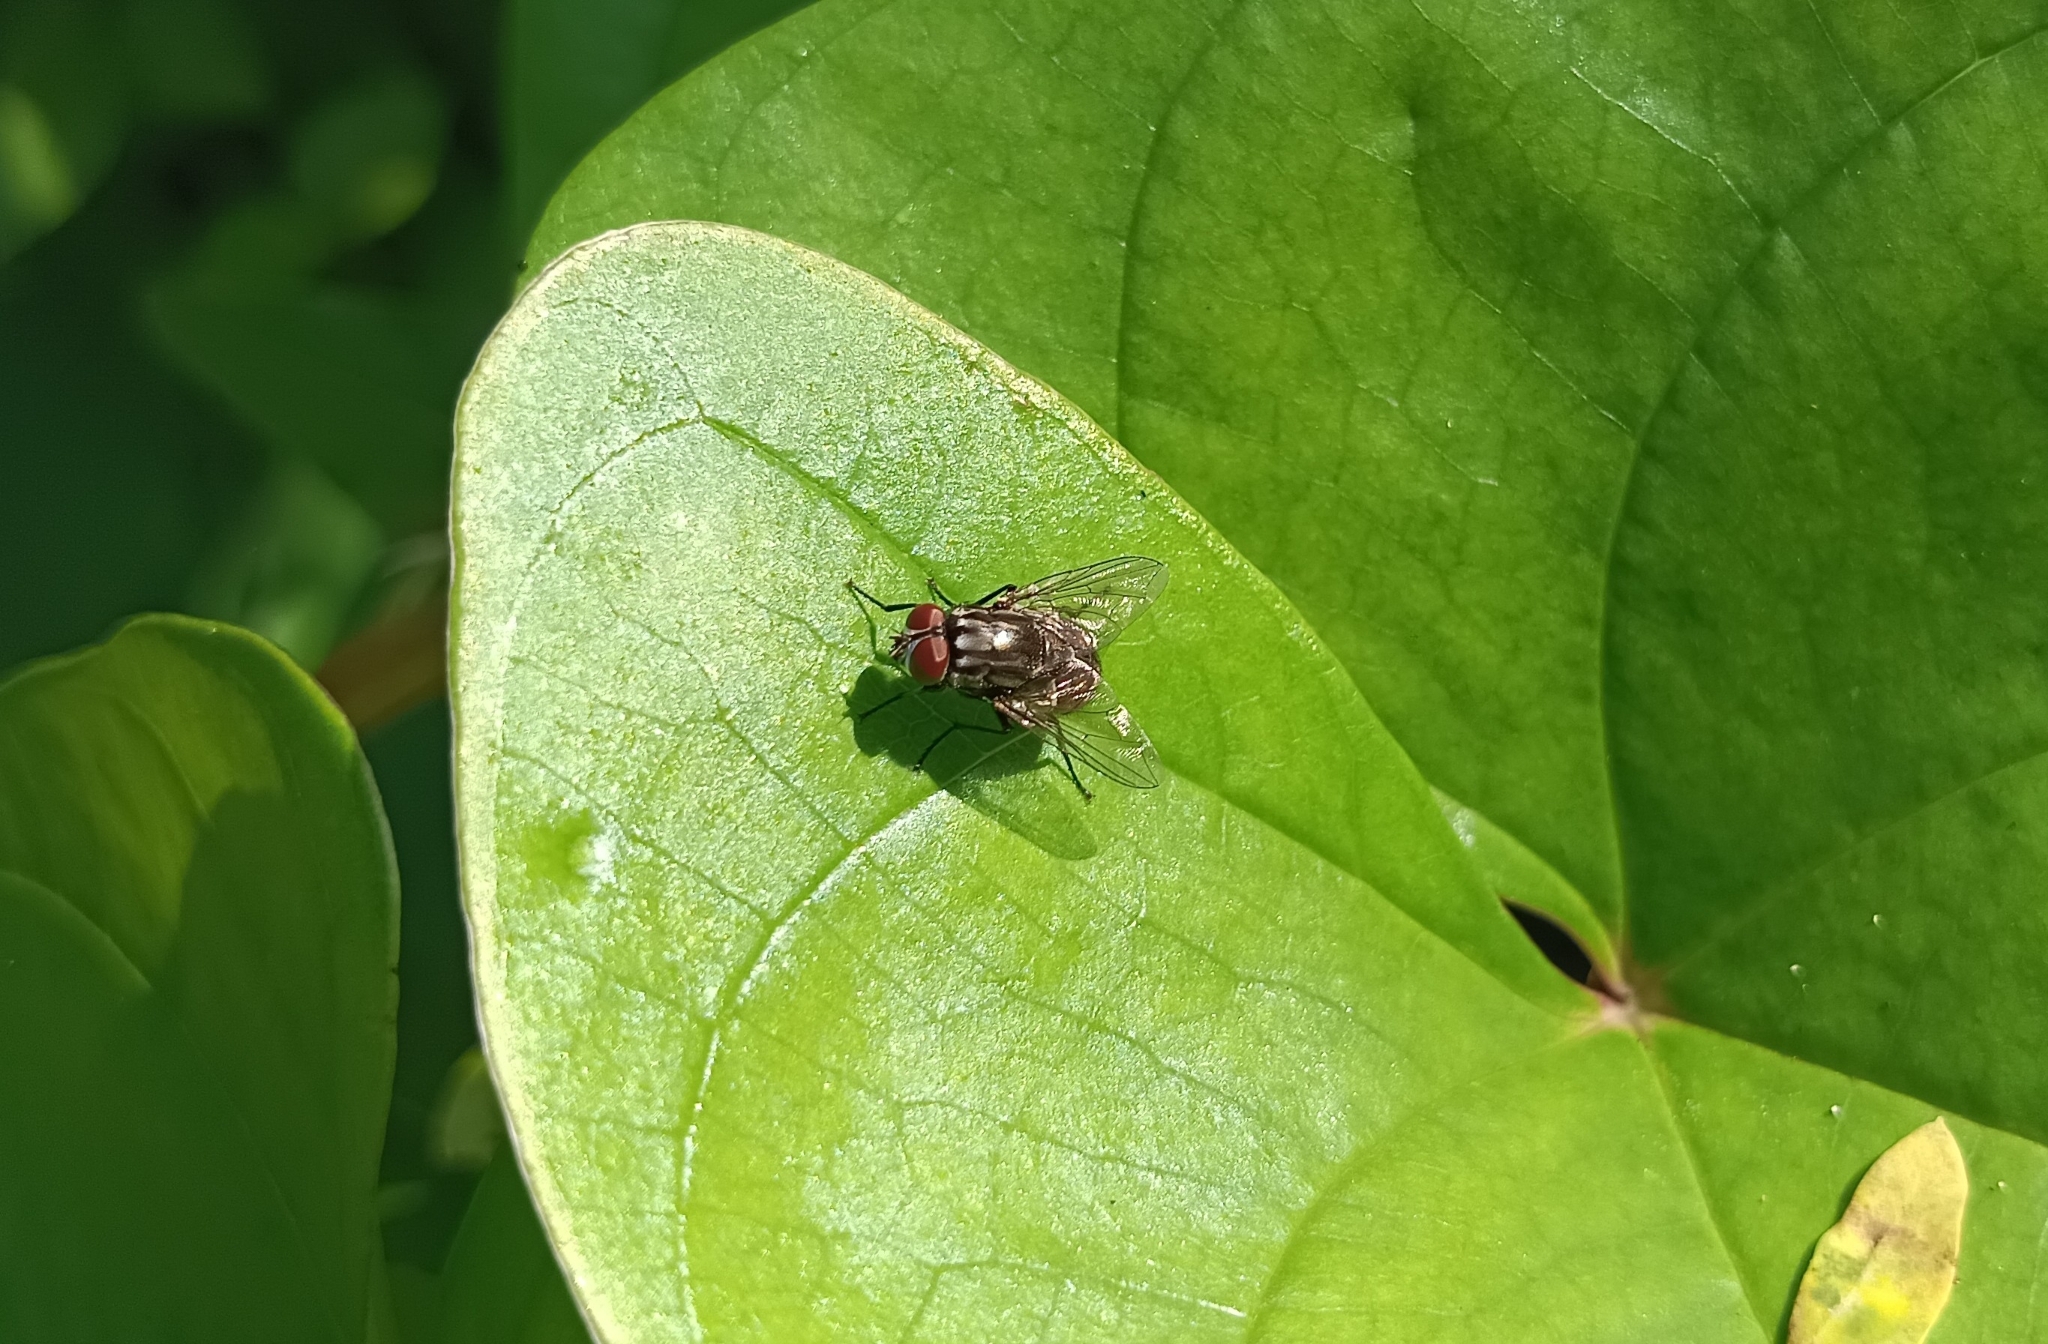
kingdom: Animalia
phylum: Arthropoda
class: Insecta
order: Diptera
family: Muscidae
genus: Musca
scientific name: Musca domestica
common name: House fly
